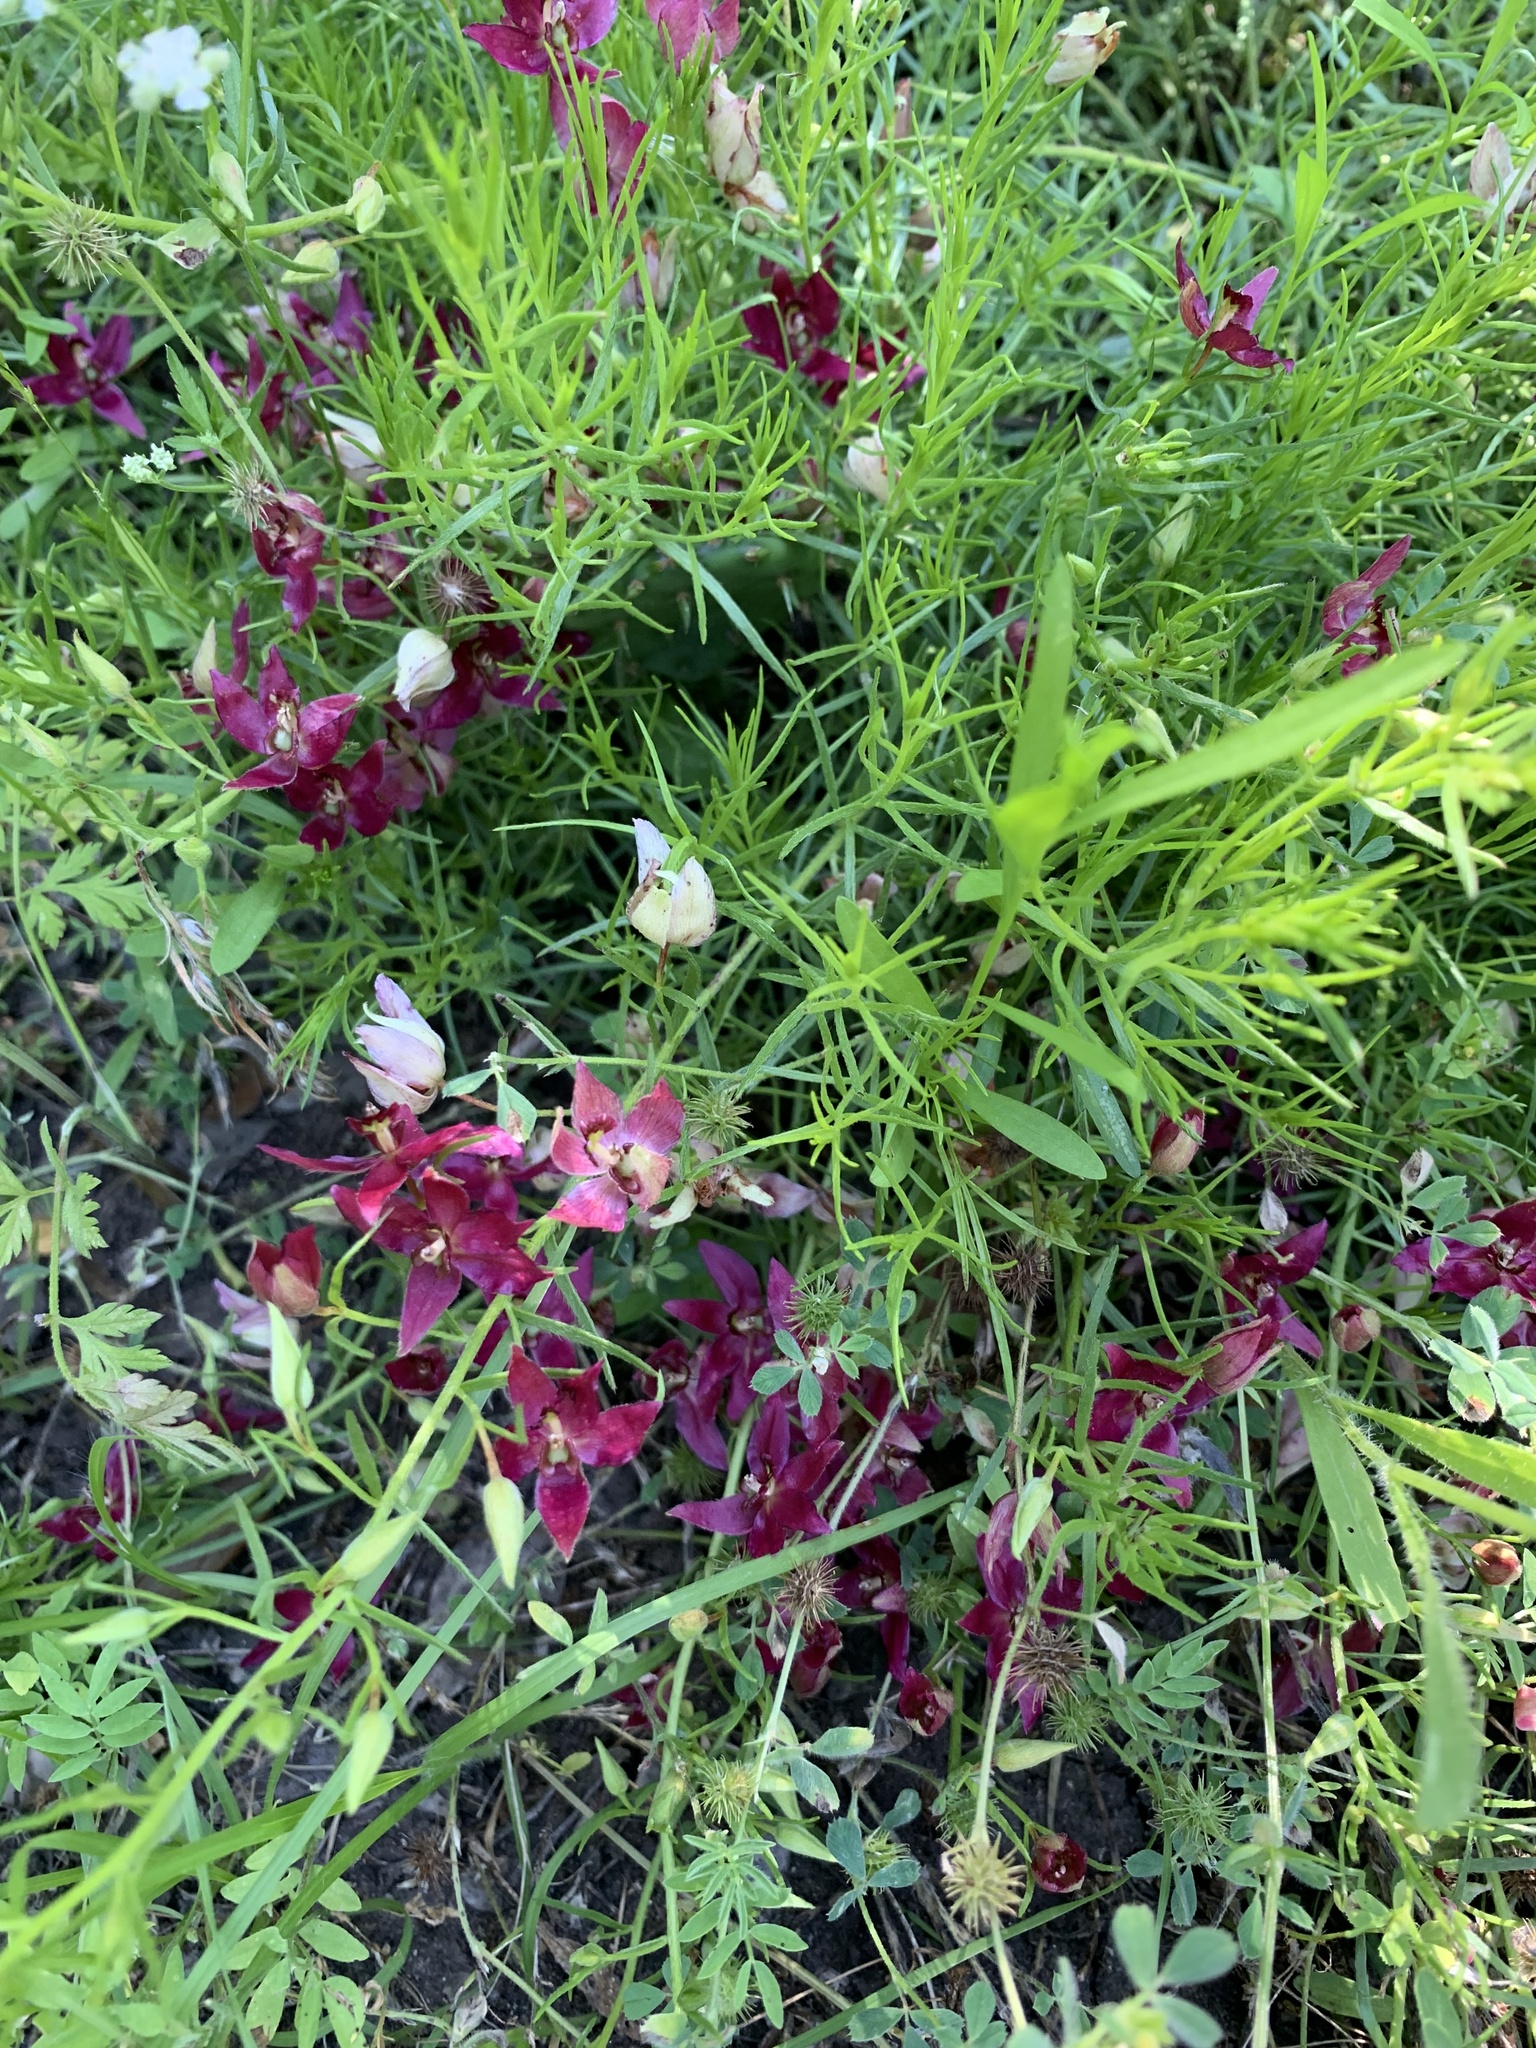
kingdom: Plantae
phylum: Tracheophyta
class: Magnoliopsida
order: Zygophyllales
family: Krameriaceae
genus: Krameria
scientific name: Krameria lanceolata
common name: Ratany
